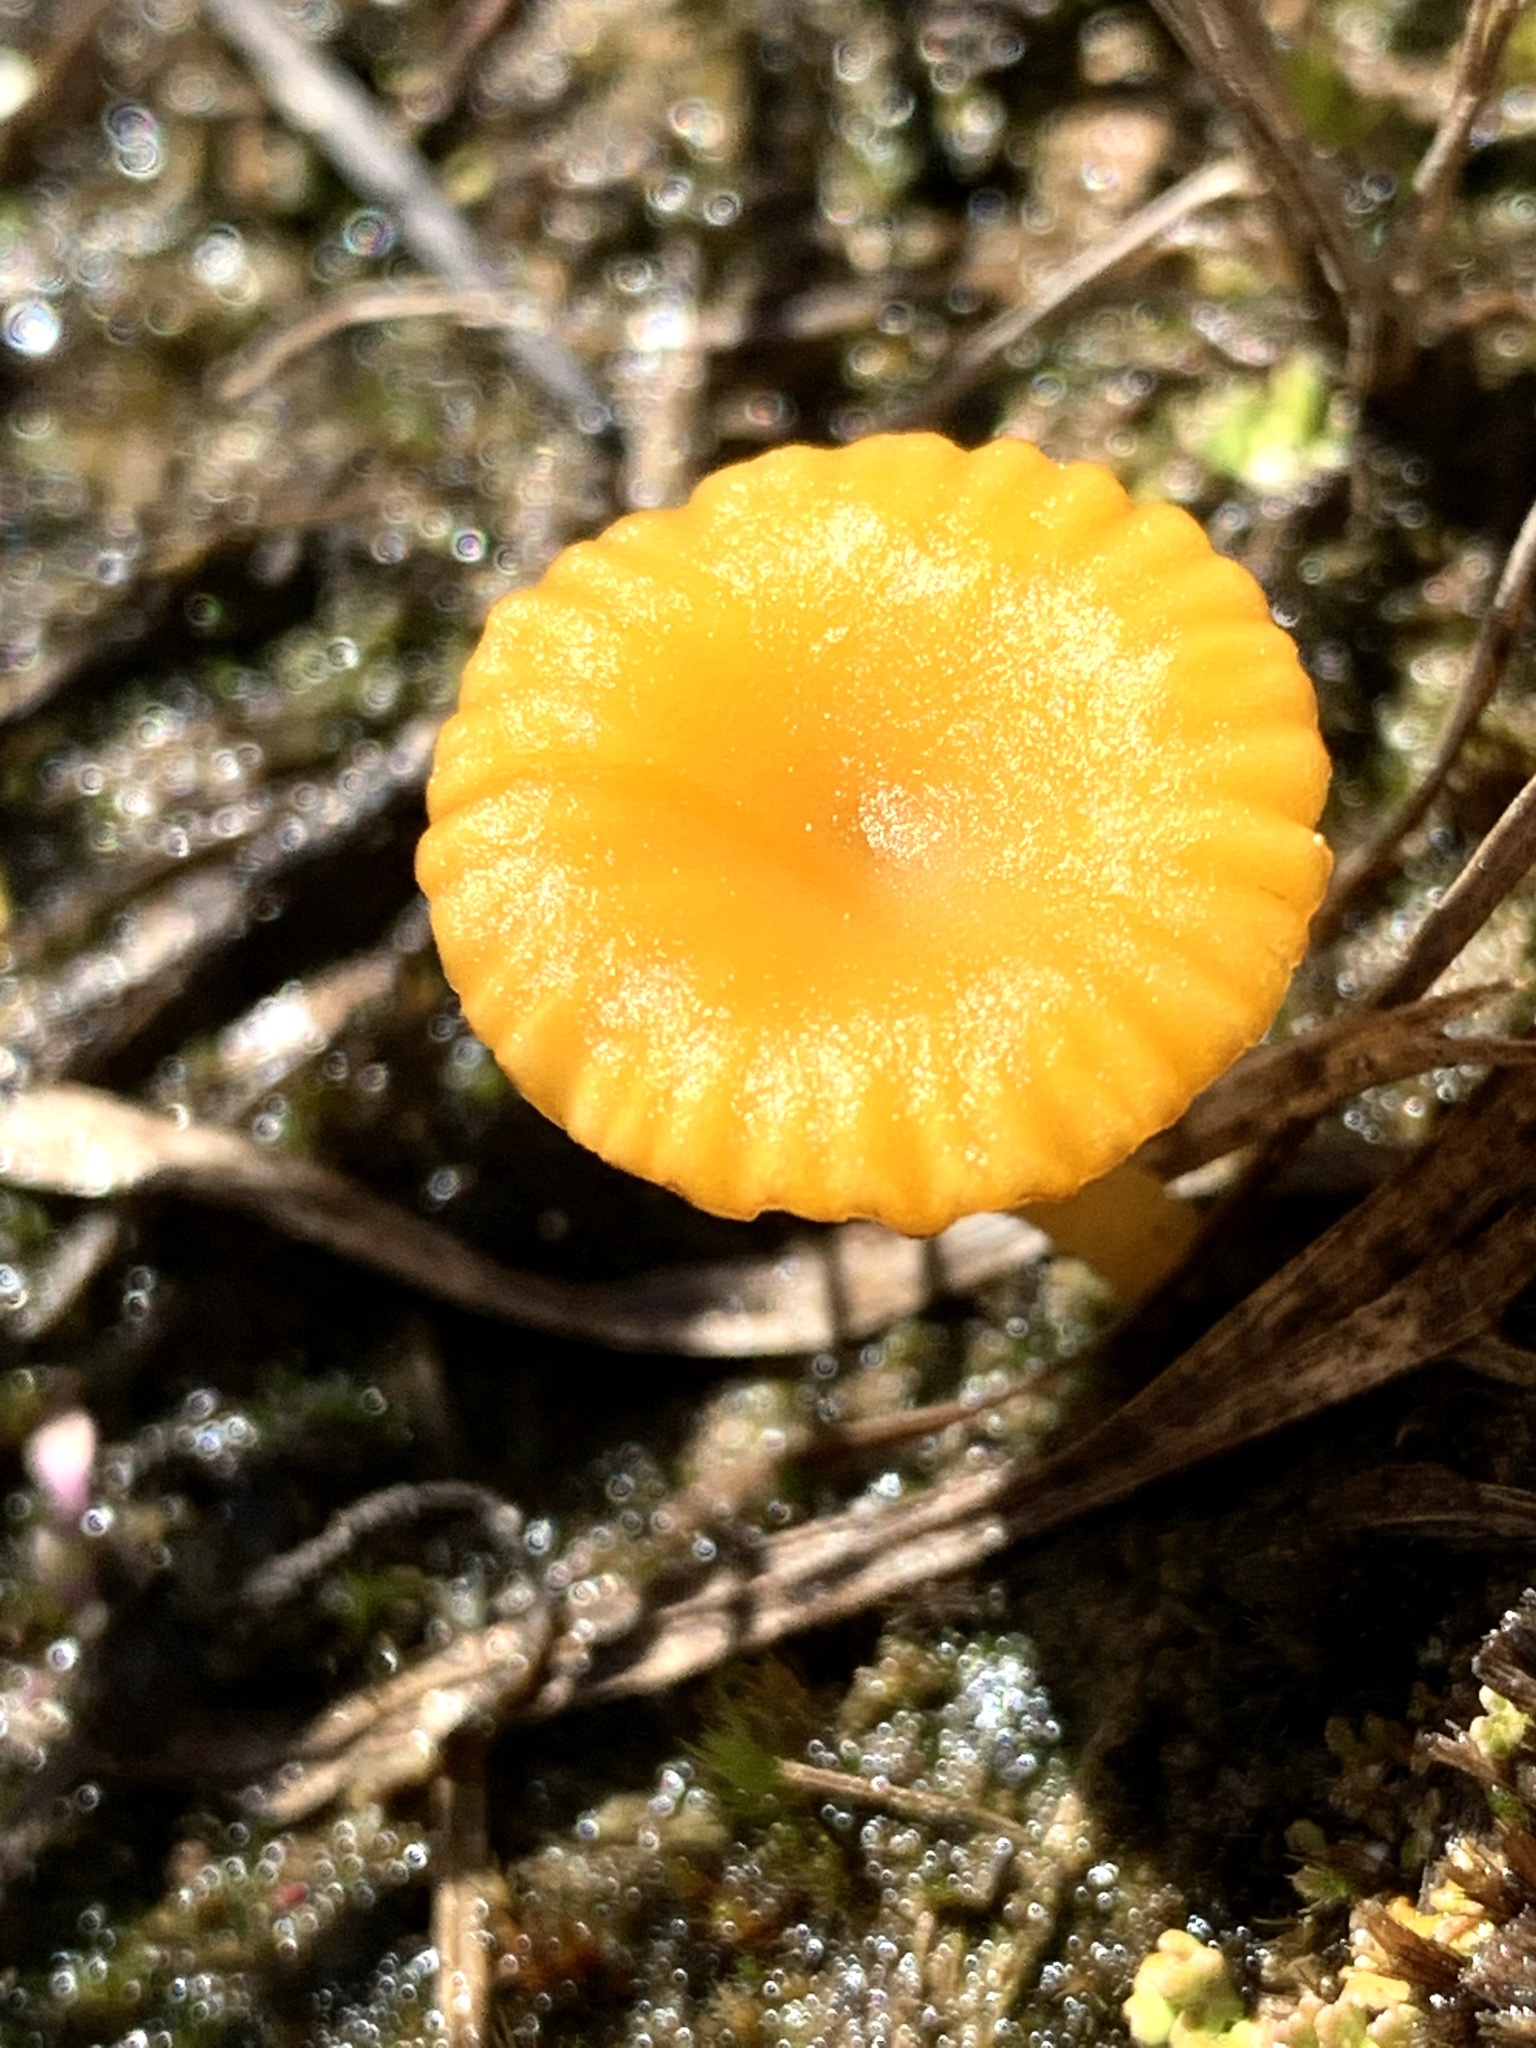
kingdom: Fungi
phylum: Basidiomycota
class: Agaricomycetes
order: Agaricales
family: Hygrophoraceae
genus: Lichenomphalia
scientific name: Lichenomphalia chromacea
